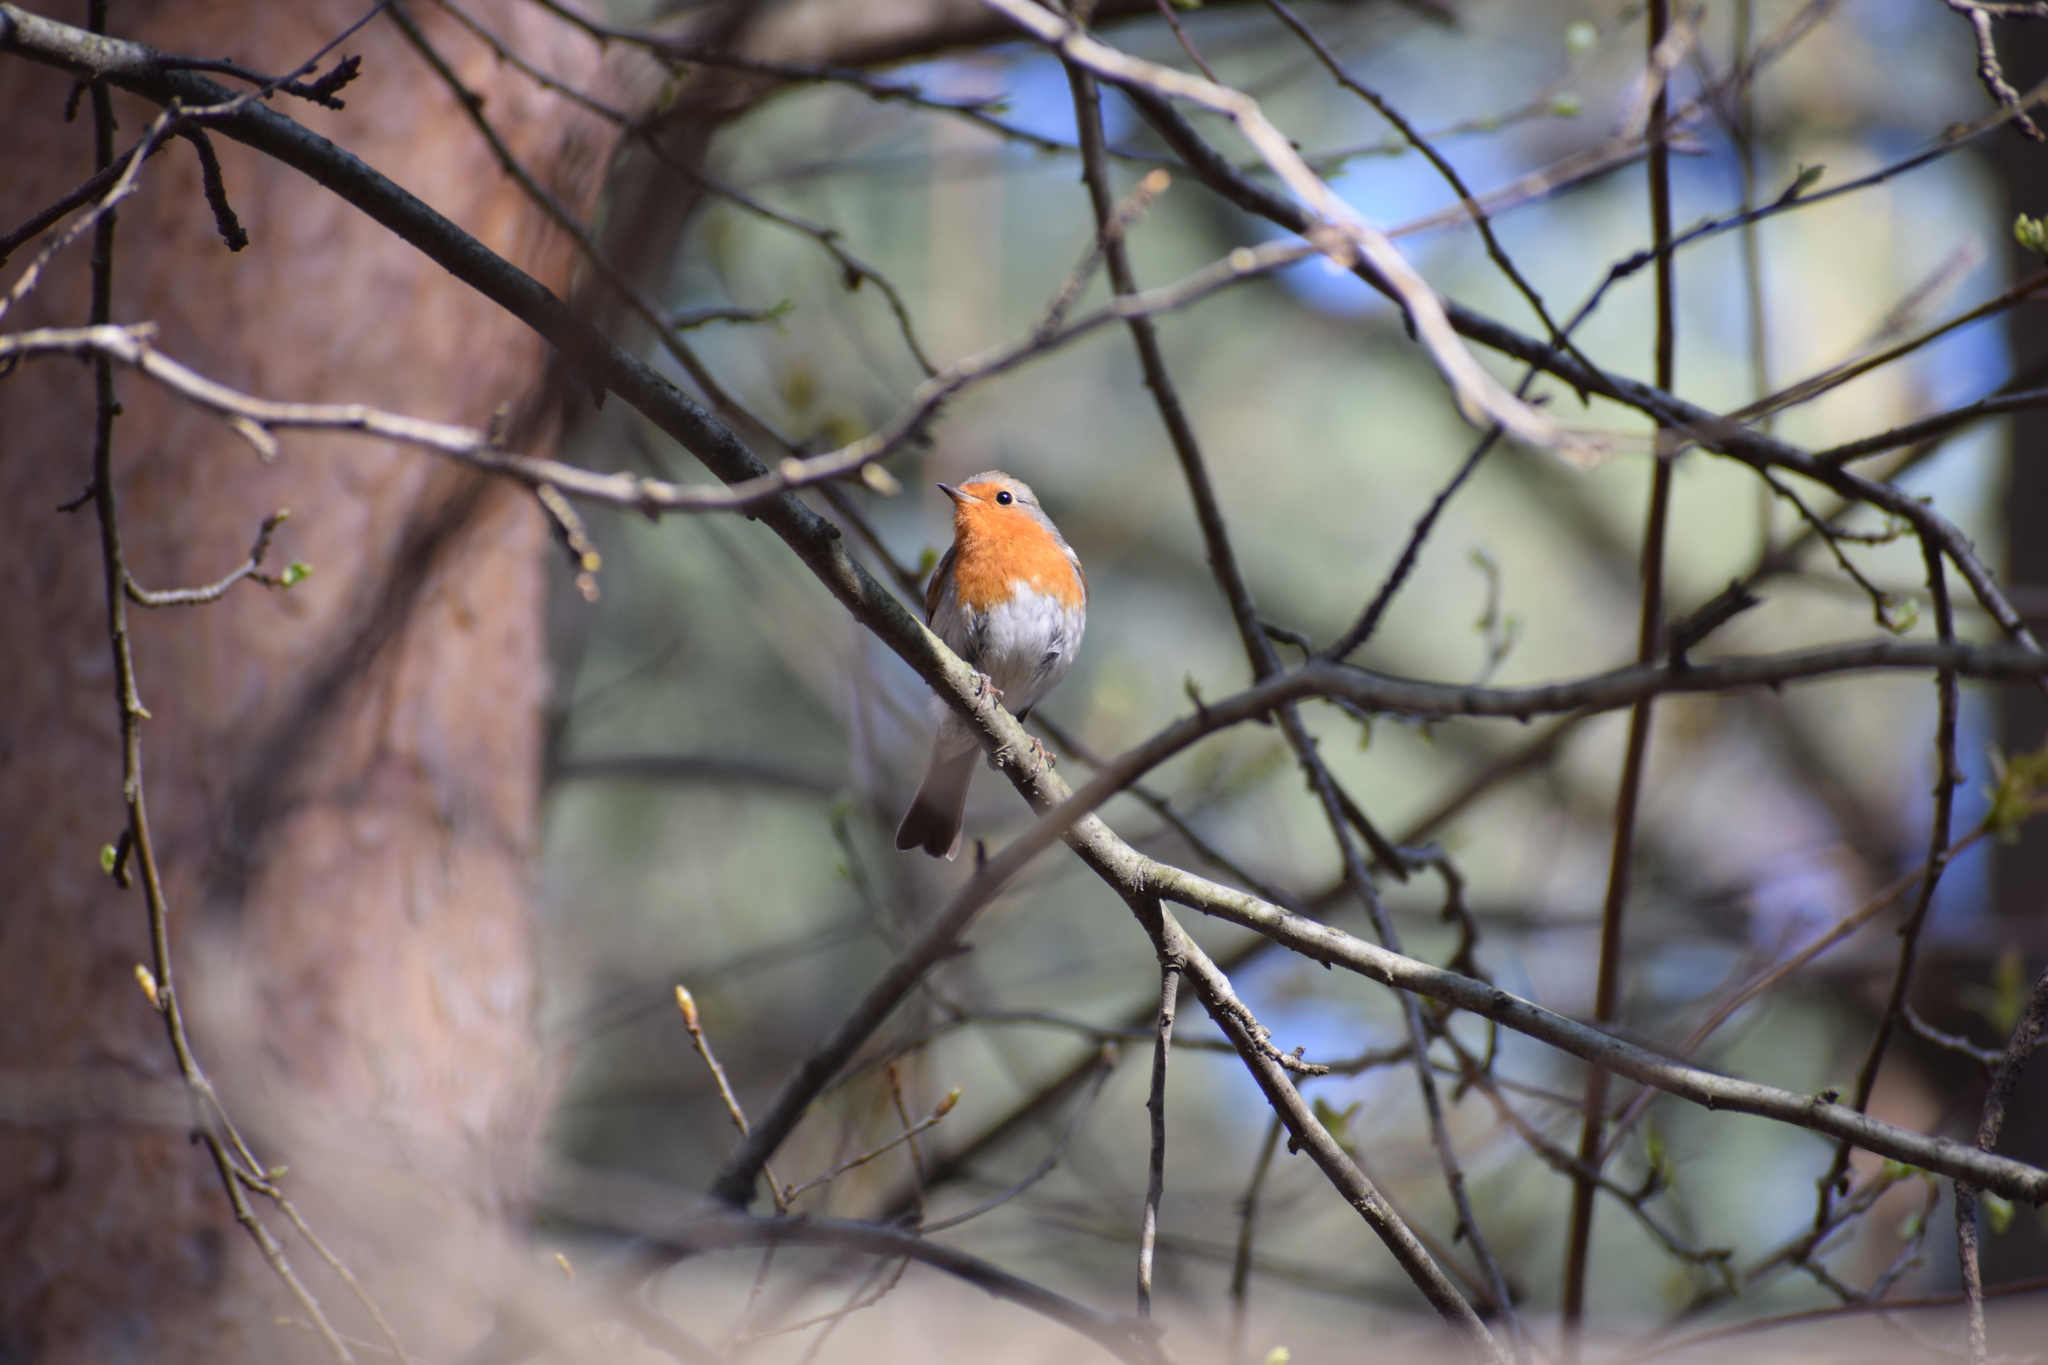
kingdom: Animalia
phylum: Chordata
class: Aves
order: Passeriformes
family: Muscicapidae
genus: Erithacus
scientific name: Erithacus rubecula
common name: European robin
